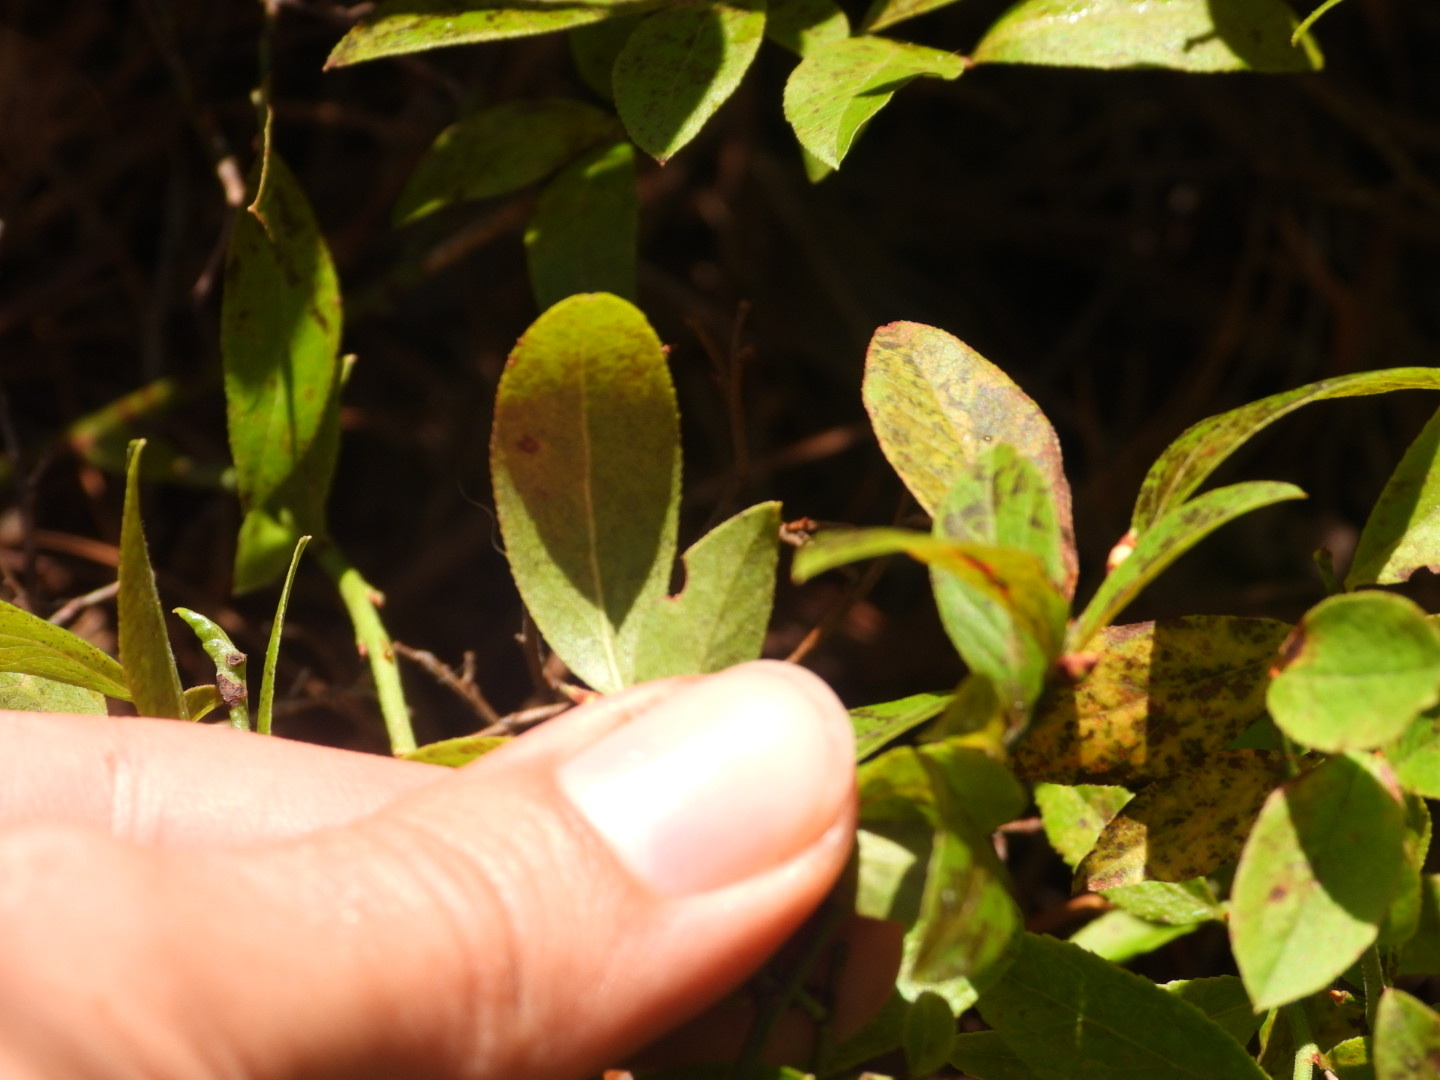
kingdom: Plantae
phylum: Tracheophyta
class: Magnoliopsida
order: Ericales
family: Ericaceae
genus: Vaccinium
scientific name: Vaccinium angustifolium
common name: Early lowbush blueberry
